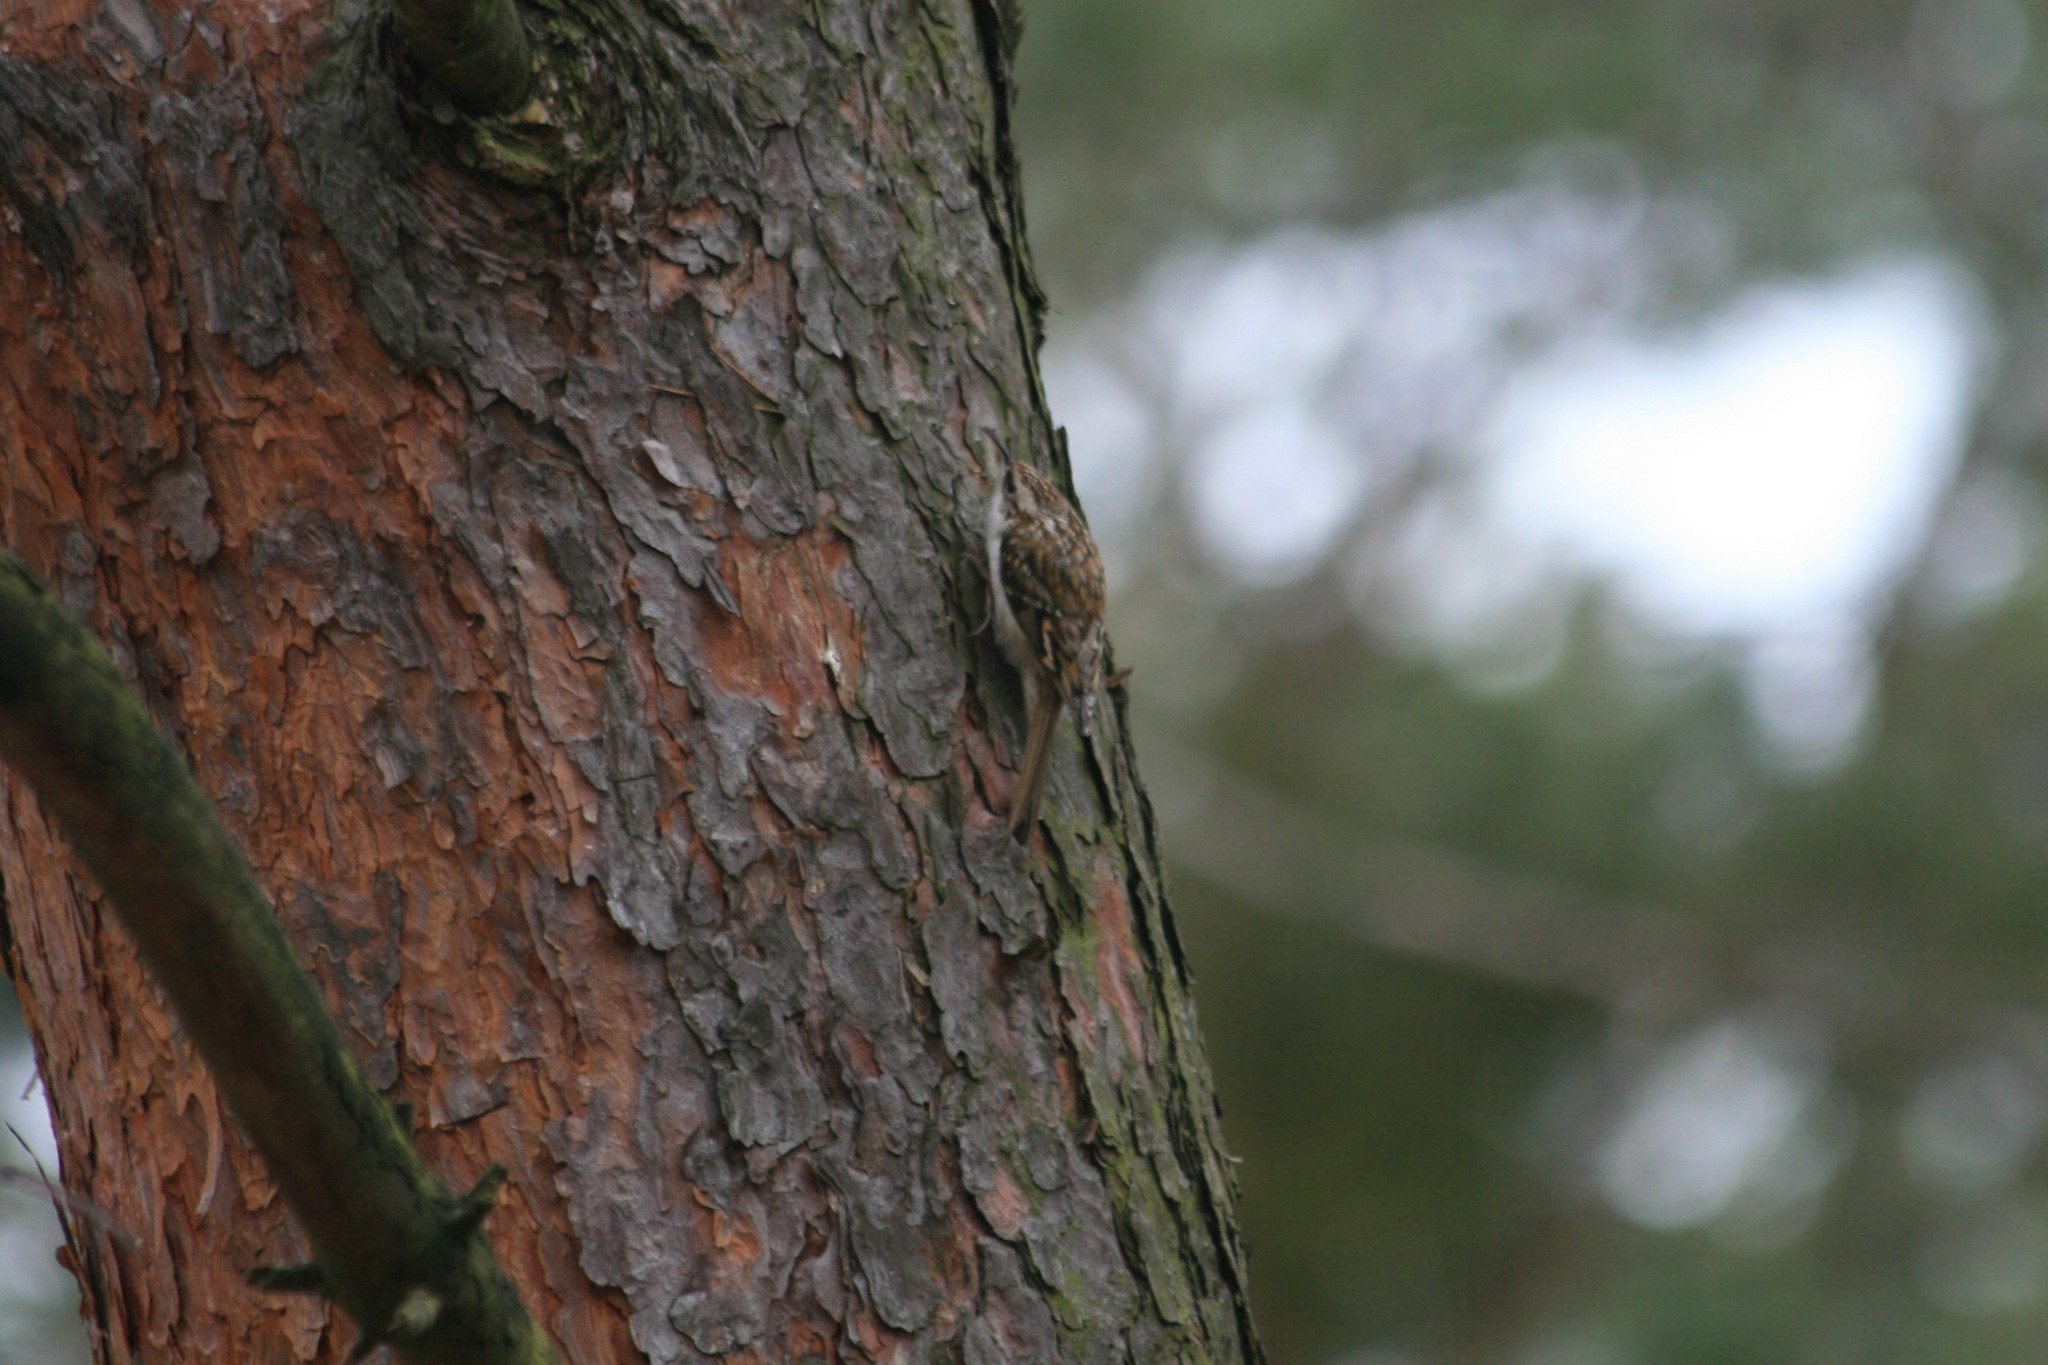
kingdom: Animalia
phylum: Chordata
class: Aves
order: Passeriformes
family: Certhiidae
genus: Certhia
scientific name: Certhia familiaris
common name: Eurasian treecreeper
